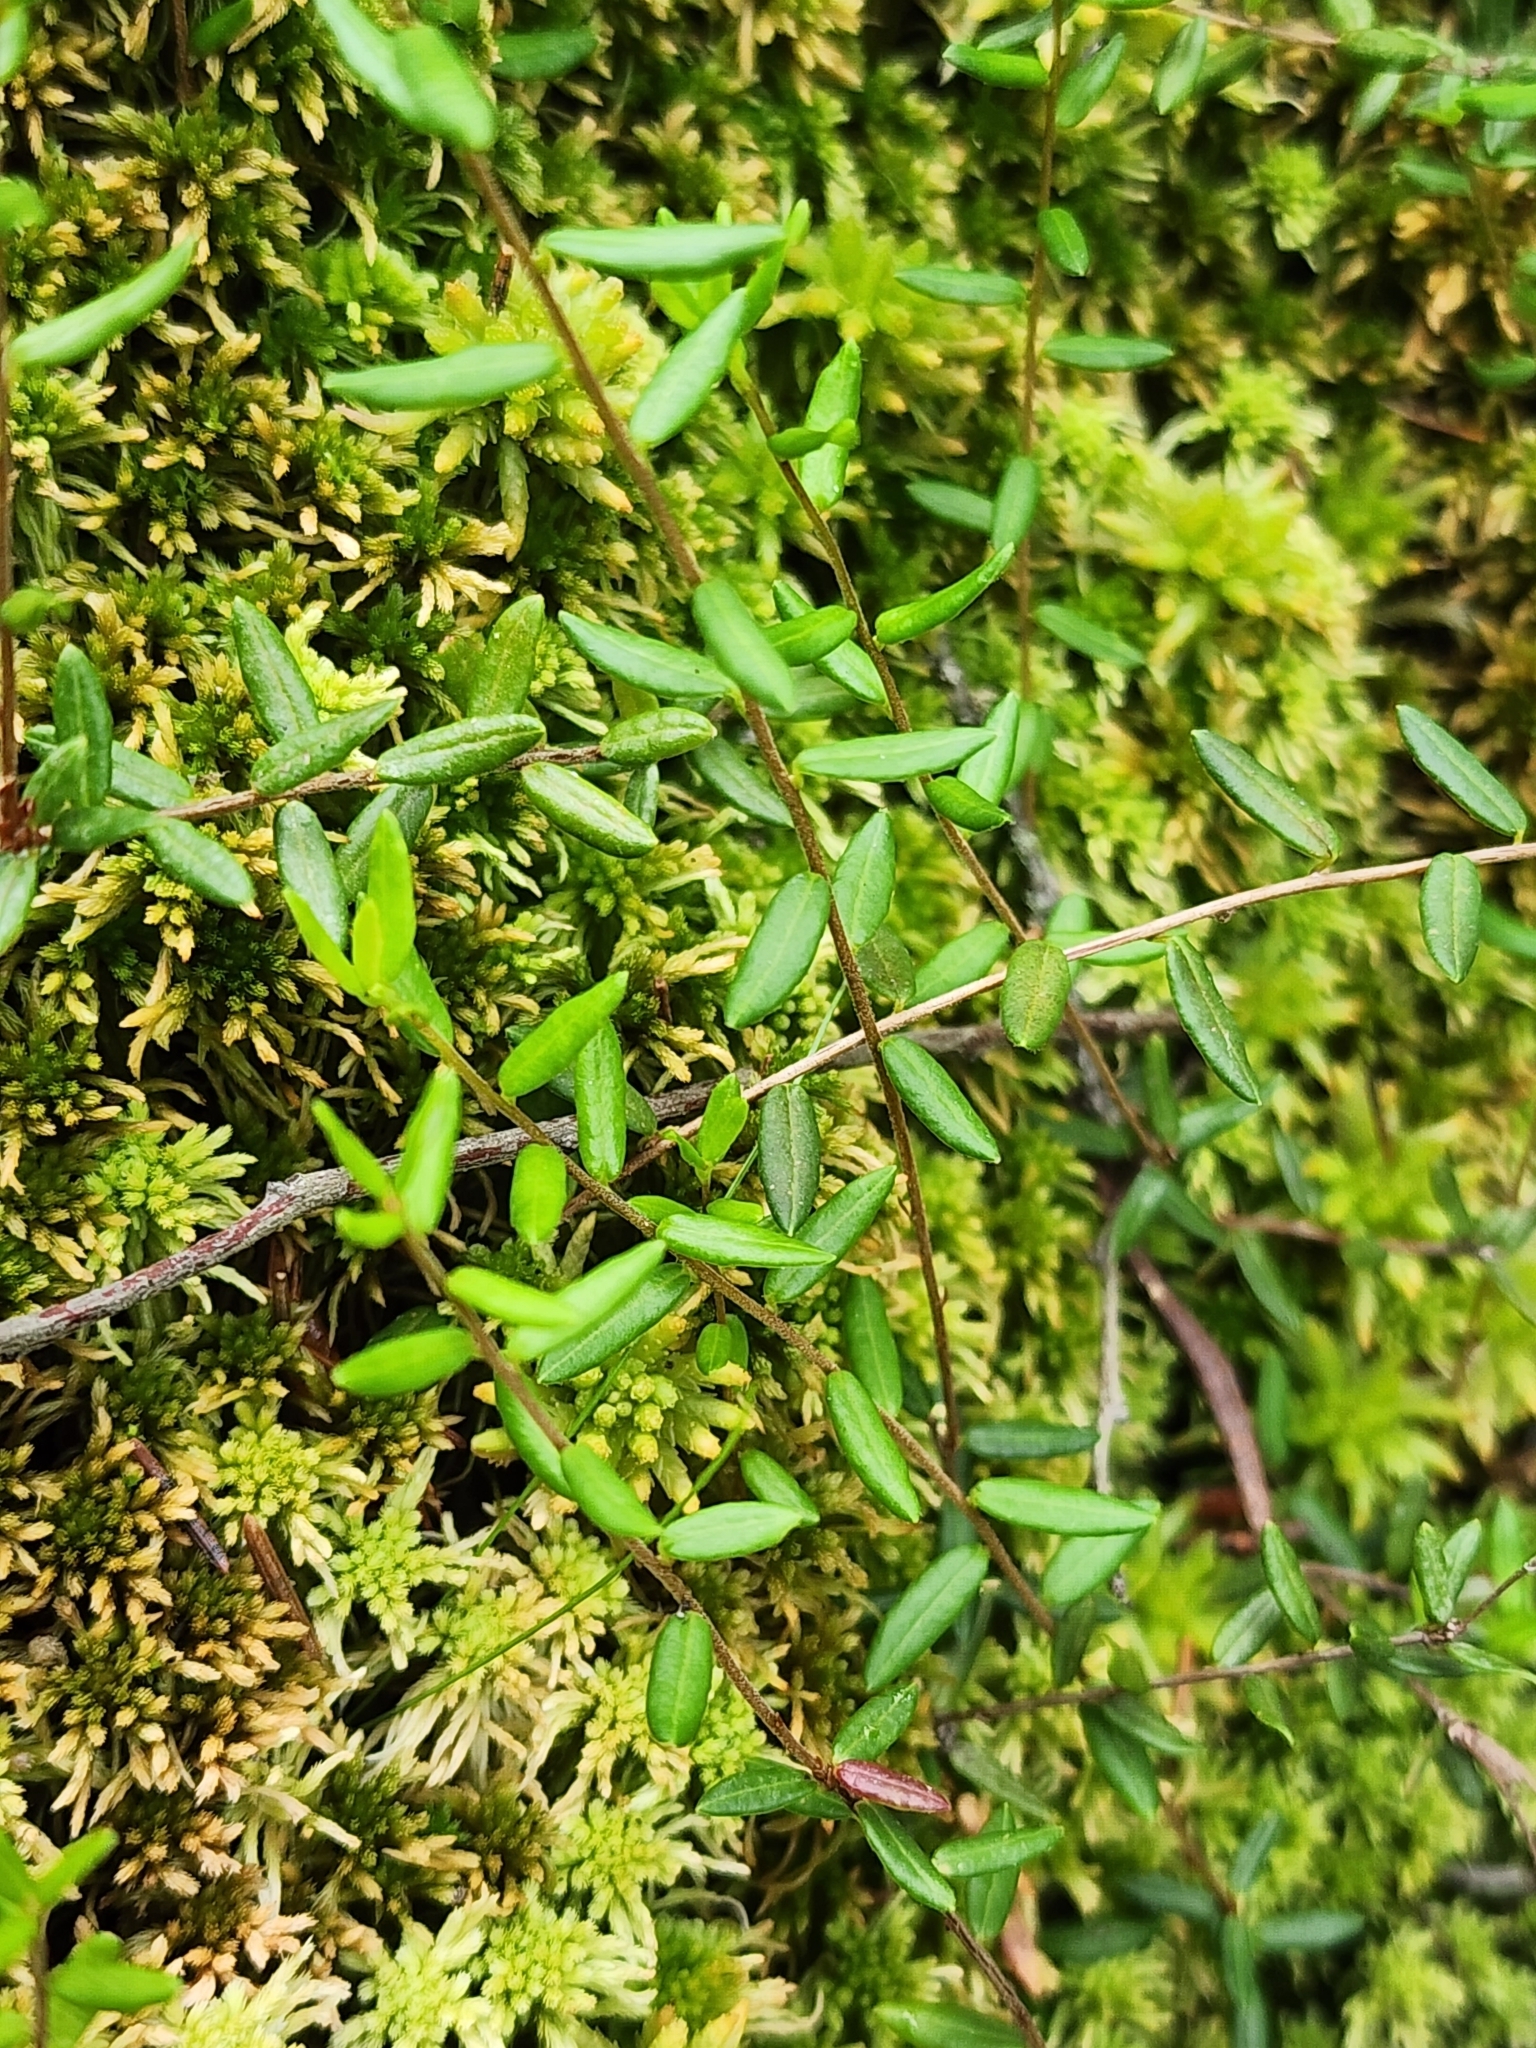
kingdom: Plantae
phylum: Tracheophyta
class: Magnoliopsida
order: Ericales
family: Ericaceae
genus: Vaccinium
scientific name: Vaccinium oxycoccos
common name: Cranberry
